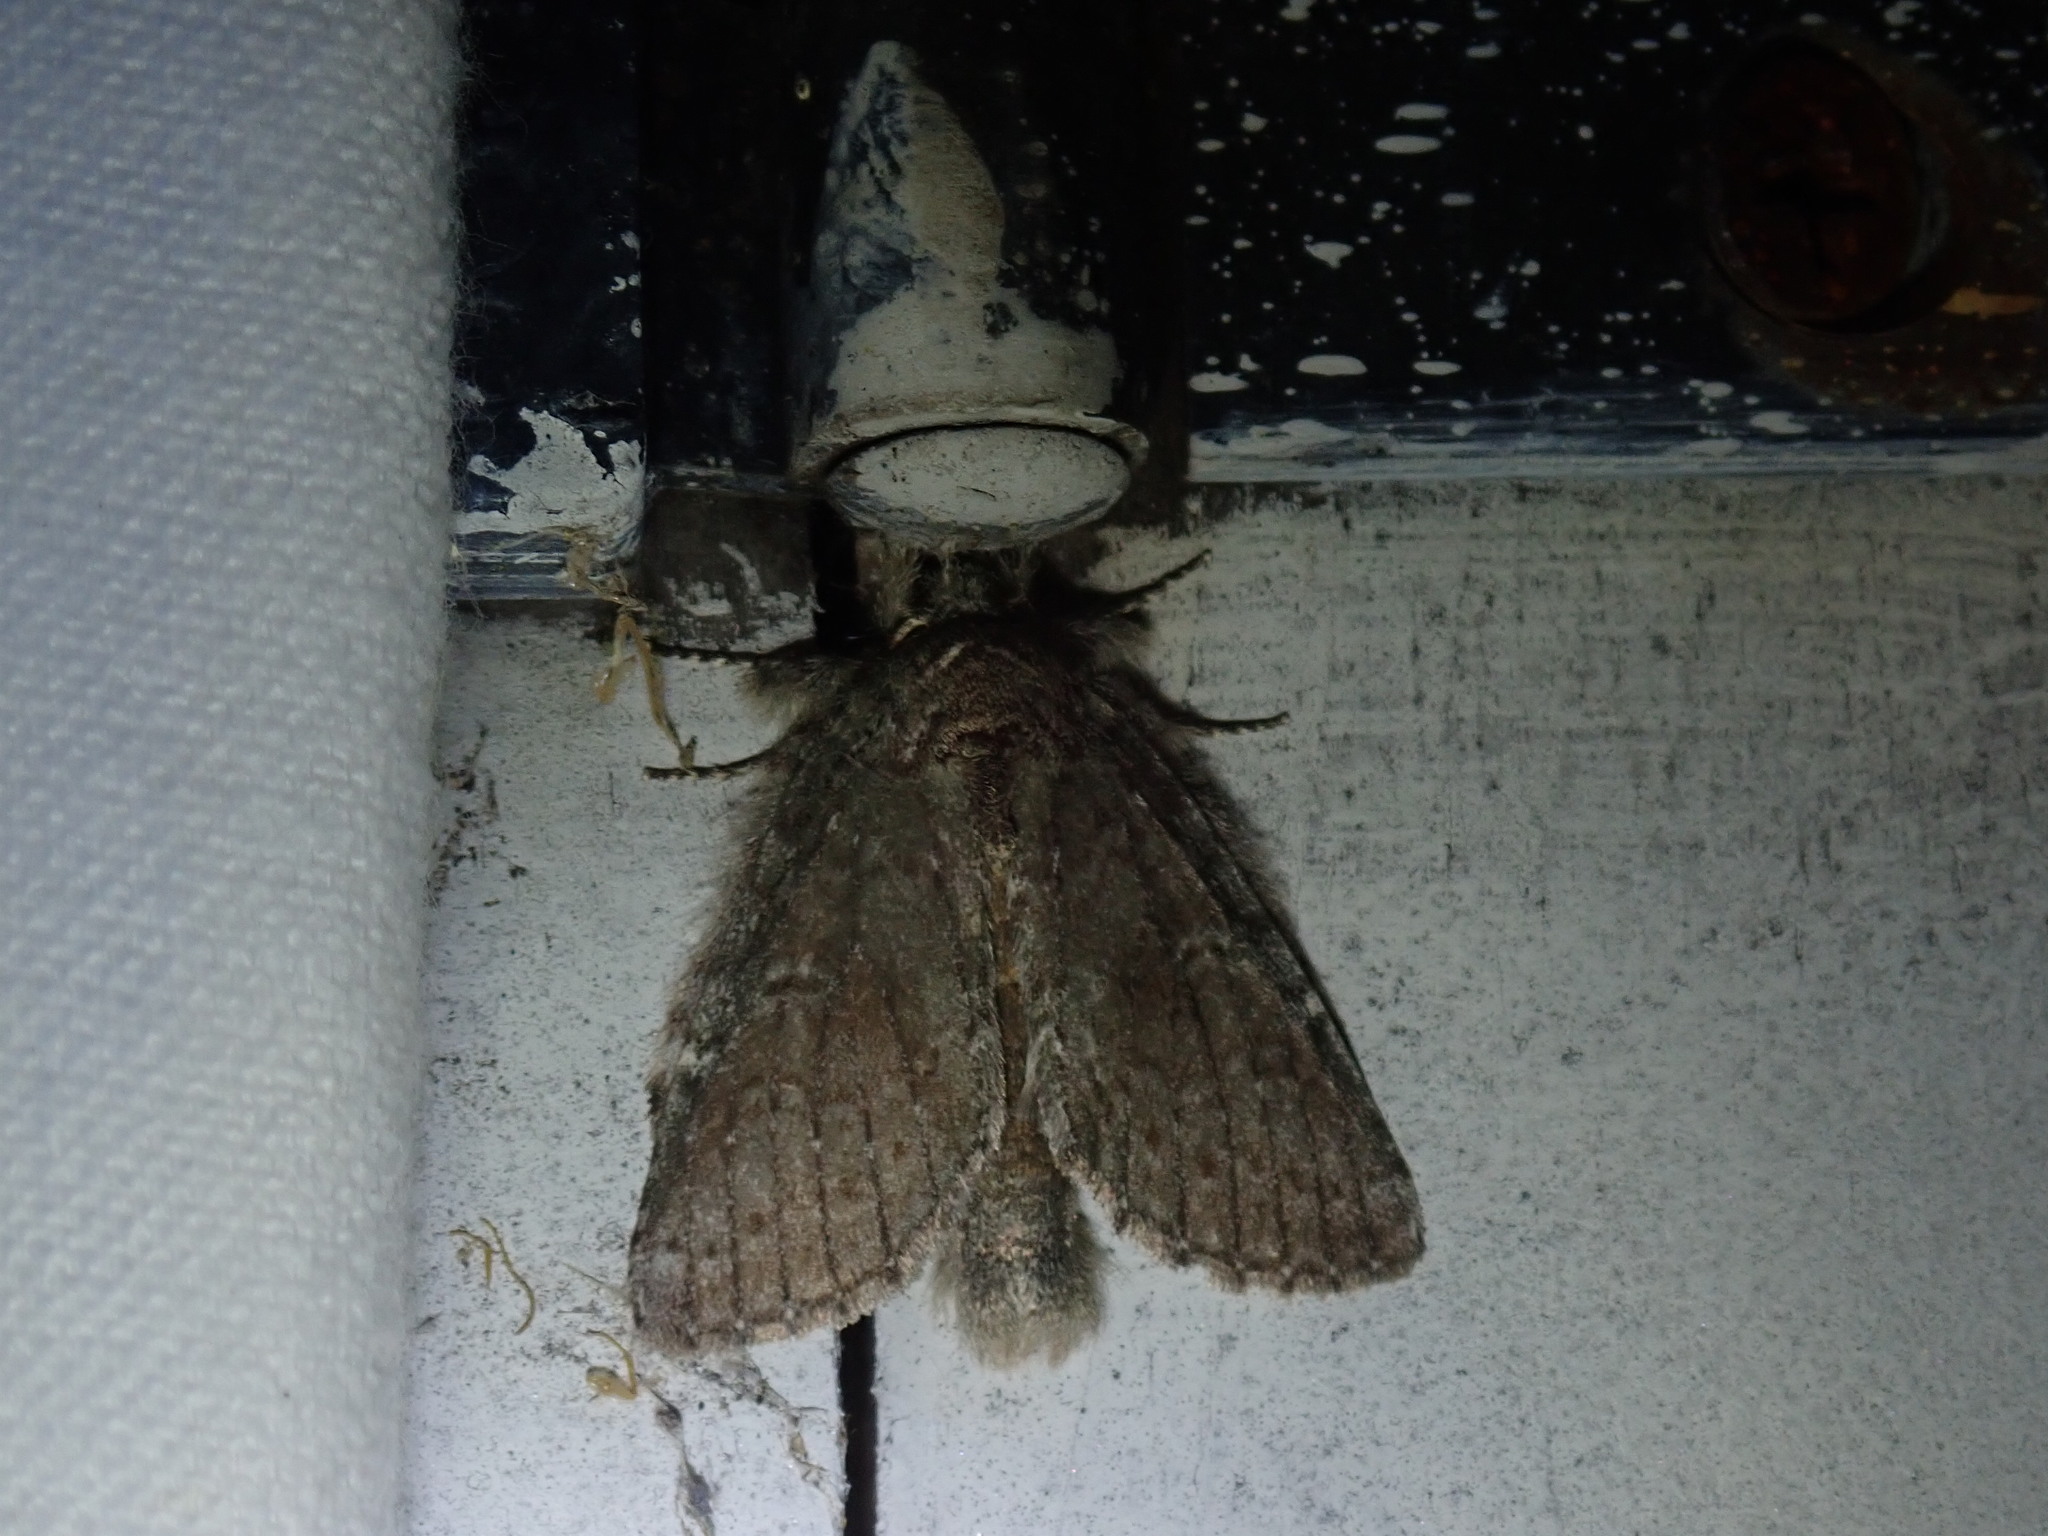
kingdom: Animalia
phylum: Arthropoda
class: Insecta
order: Lepidoptera
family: Notodontidae
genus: Disphragis
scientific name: Disphragis Cecrita guttivitta
